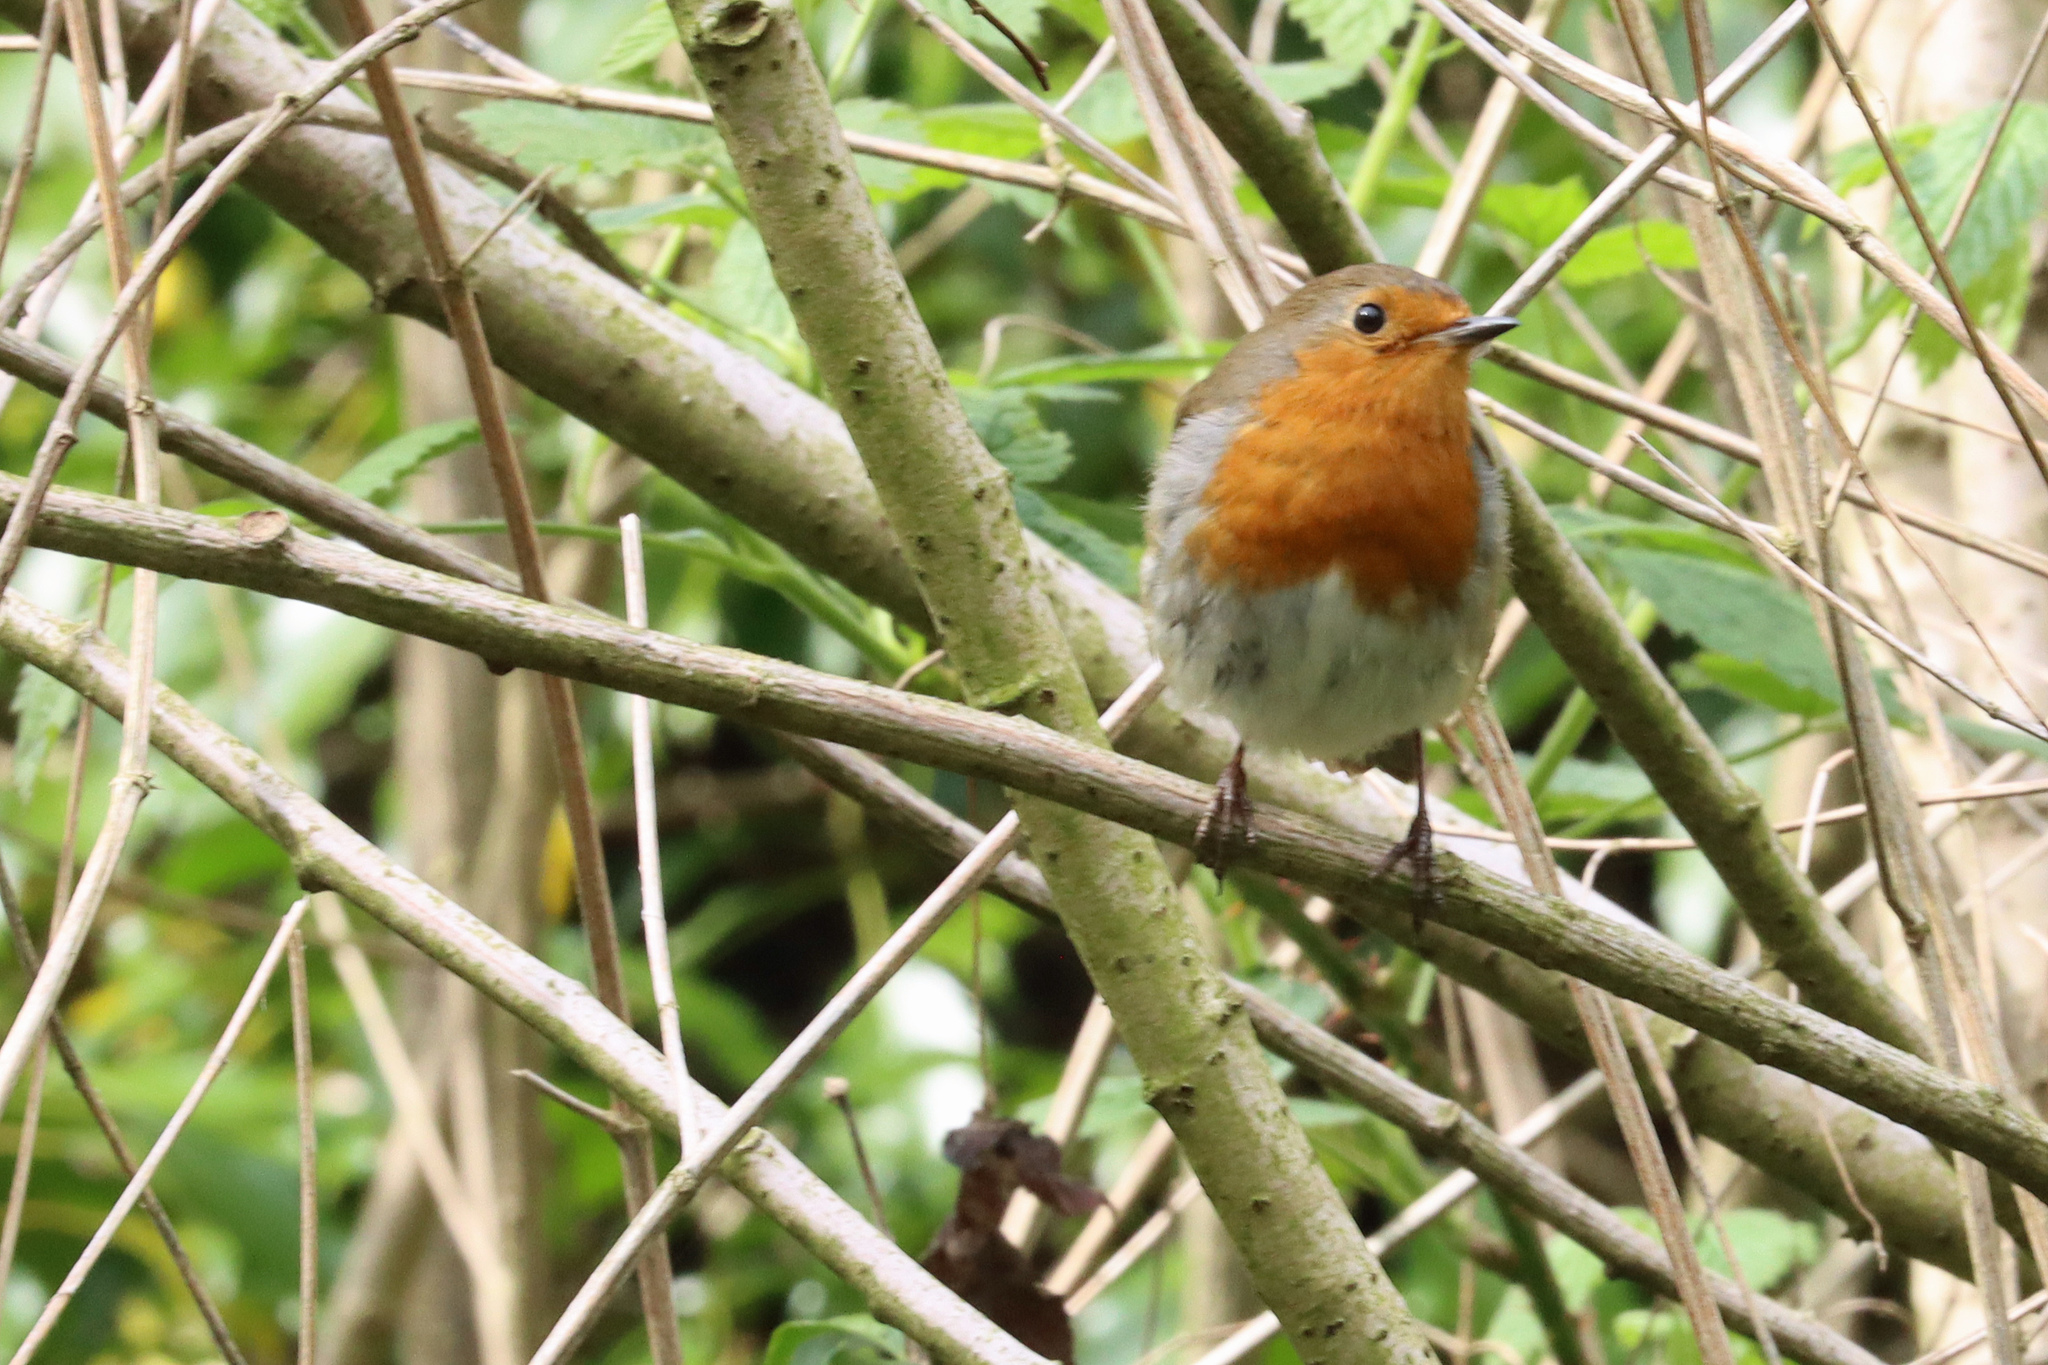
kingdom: Animalia
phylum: Chordata
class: Aves
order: Passeriformes
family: Muscicapidae
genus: Erithacus
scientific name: Erithacus rubecula
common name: European robin
